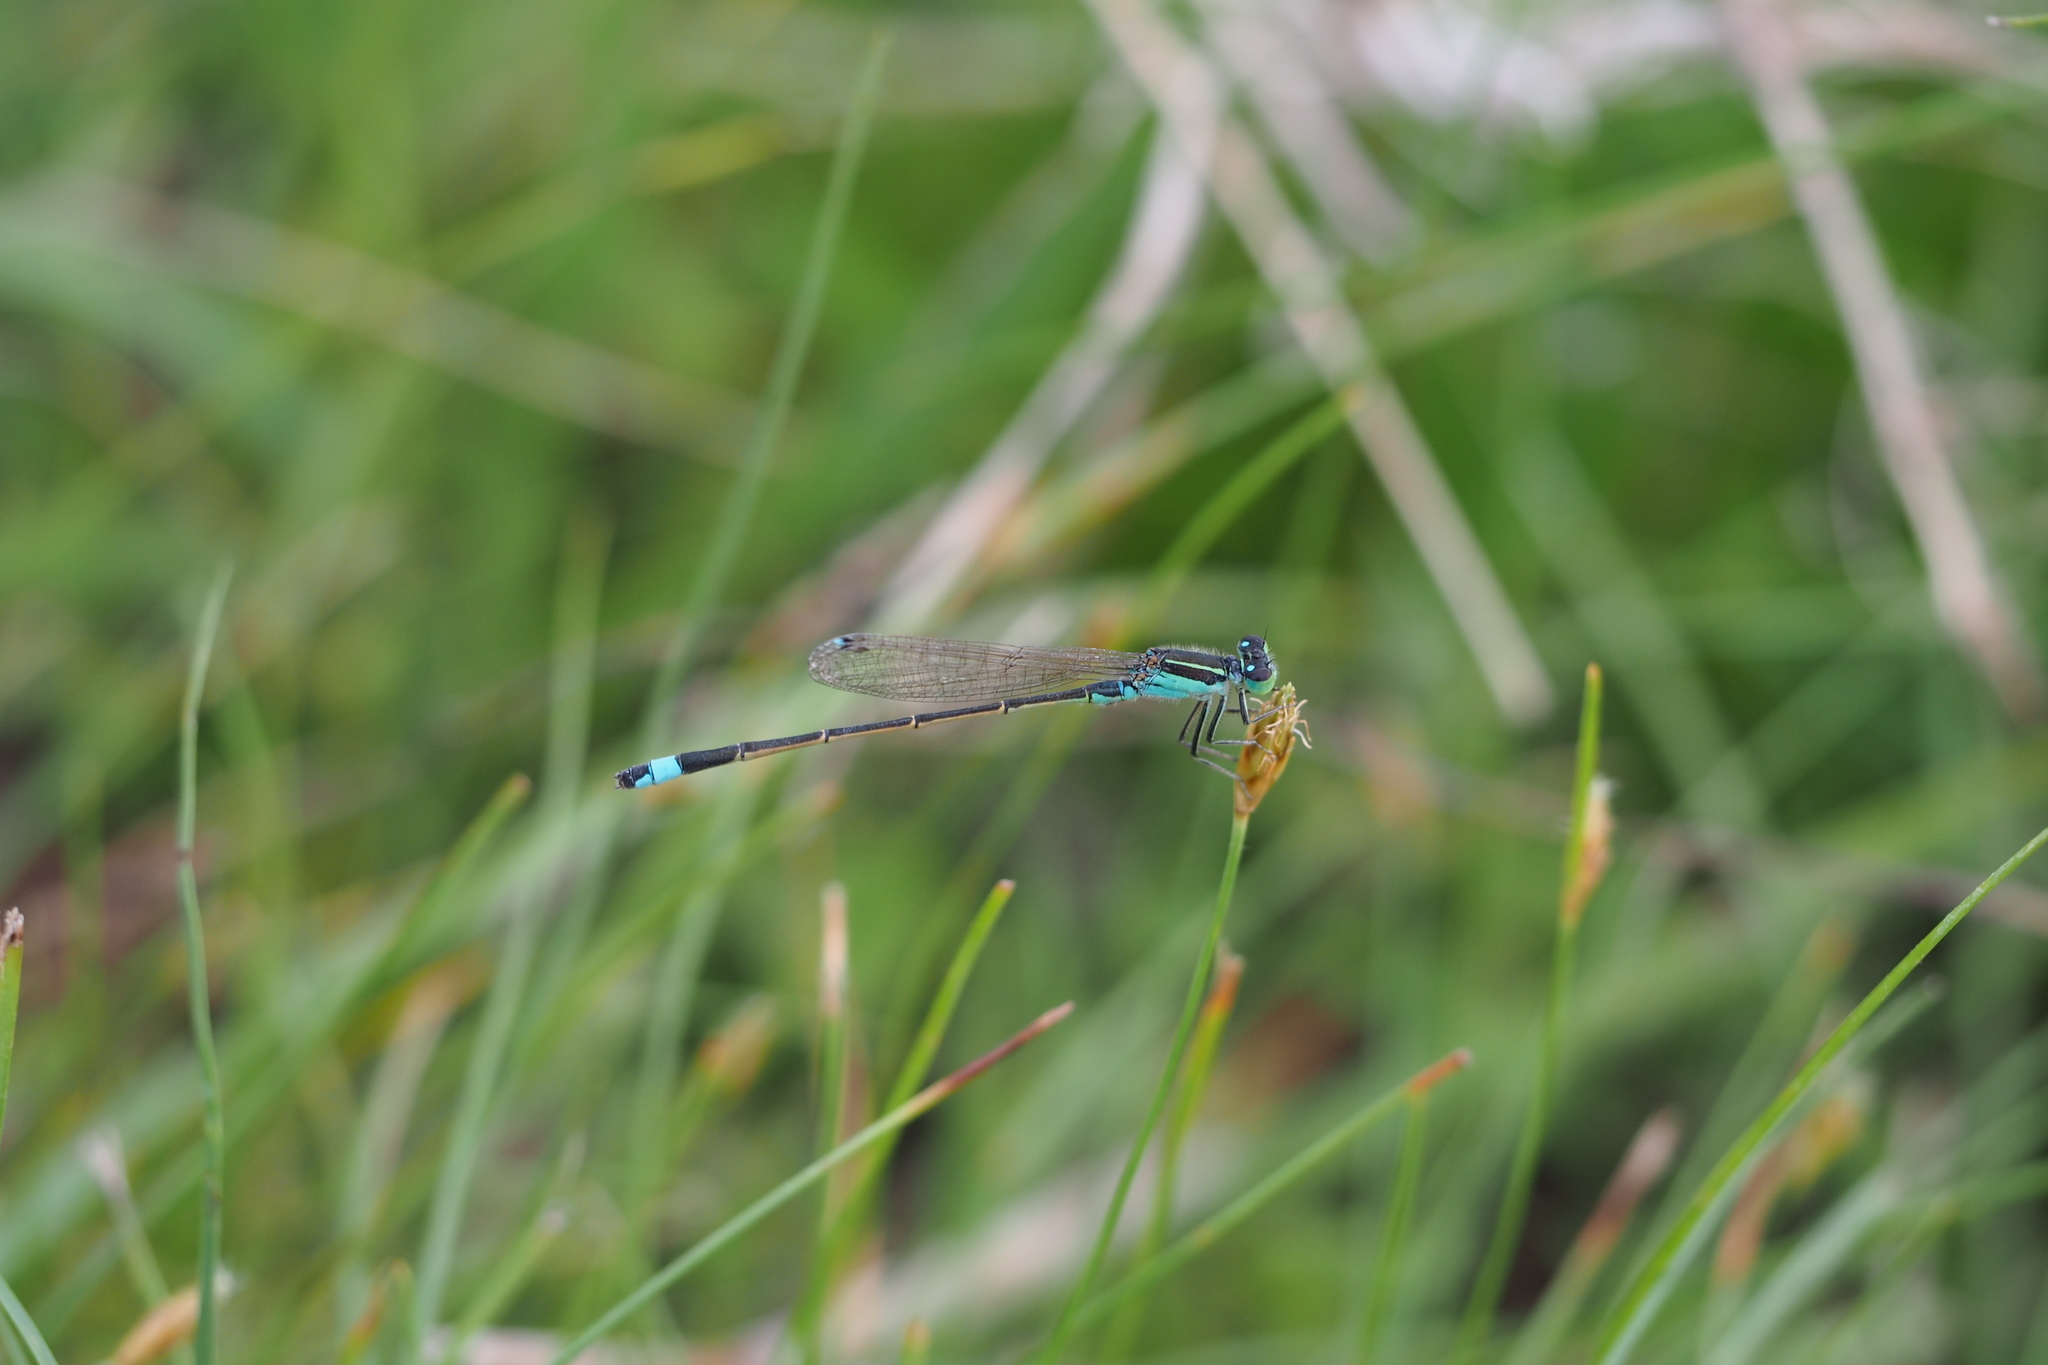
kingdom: Animalia
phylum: Arthropoda
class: Insecta
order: Odonata
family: Coenagrionidae
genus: Ischnura
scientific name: Ischnura senegalensis
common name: Tropical bluetail
